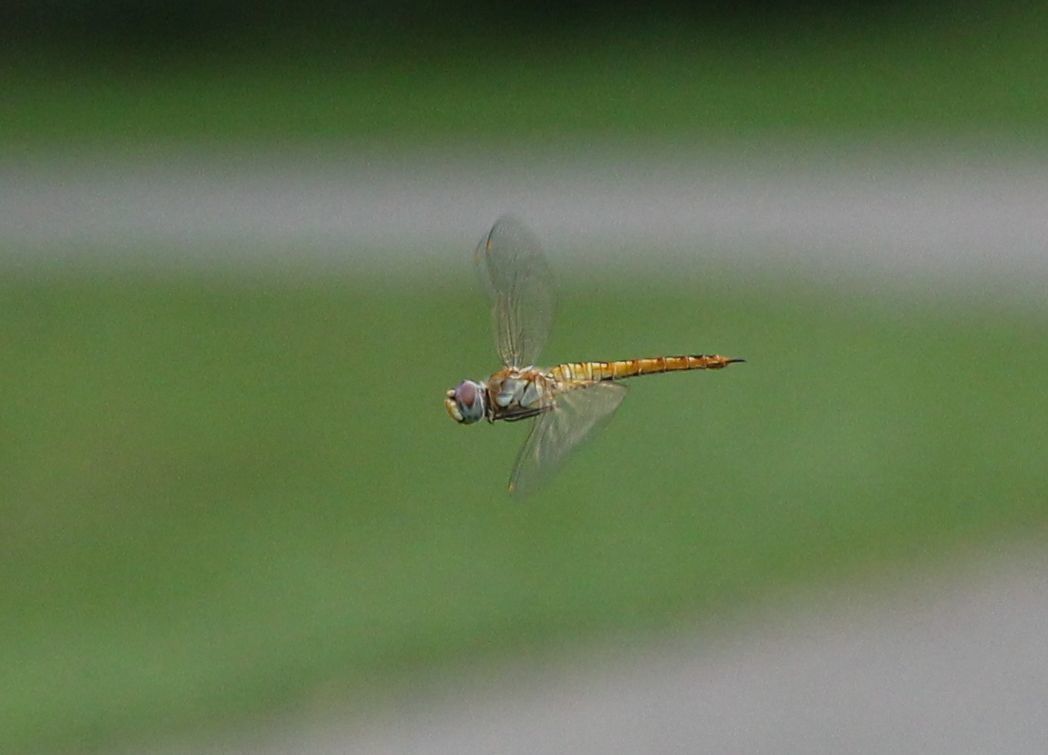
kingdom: Animalia
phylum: Arthropoda
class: Insecta
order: Odonata
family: Libellulidae
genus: Pantala
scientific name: Pantala flavescens
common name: Wandering glider
